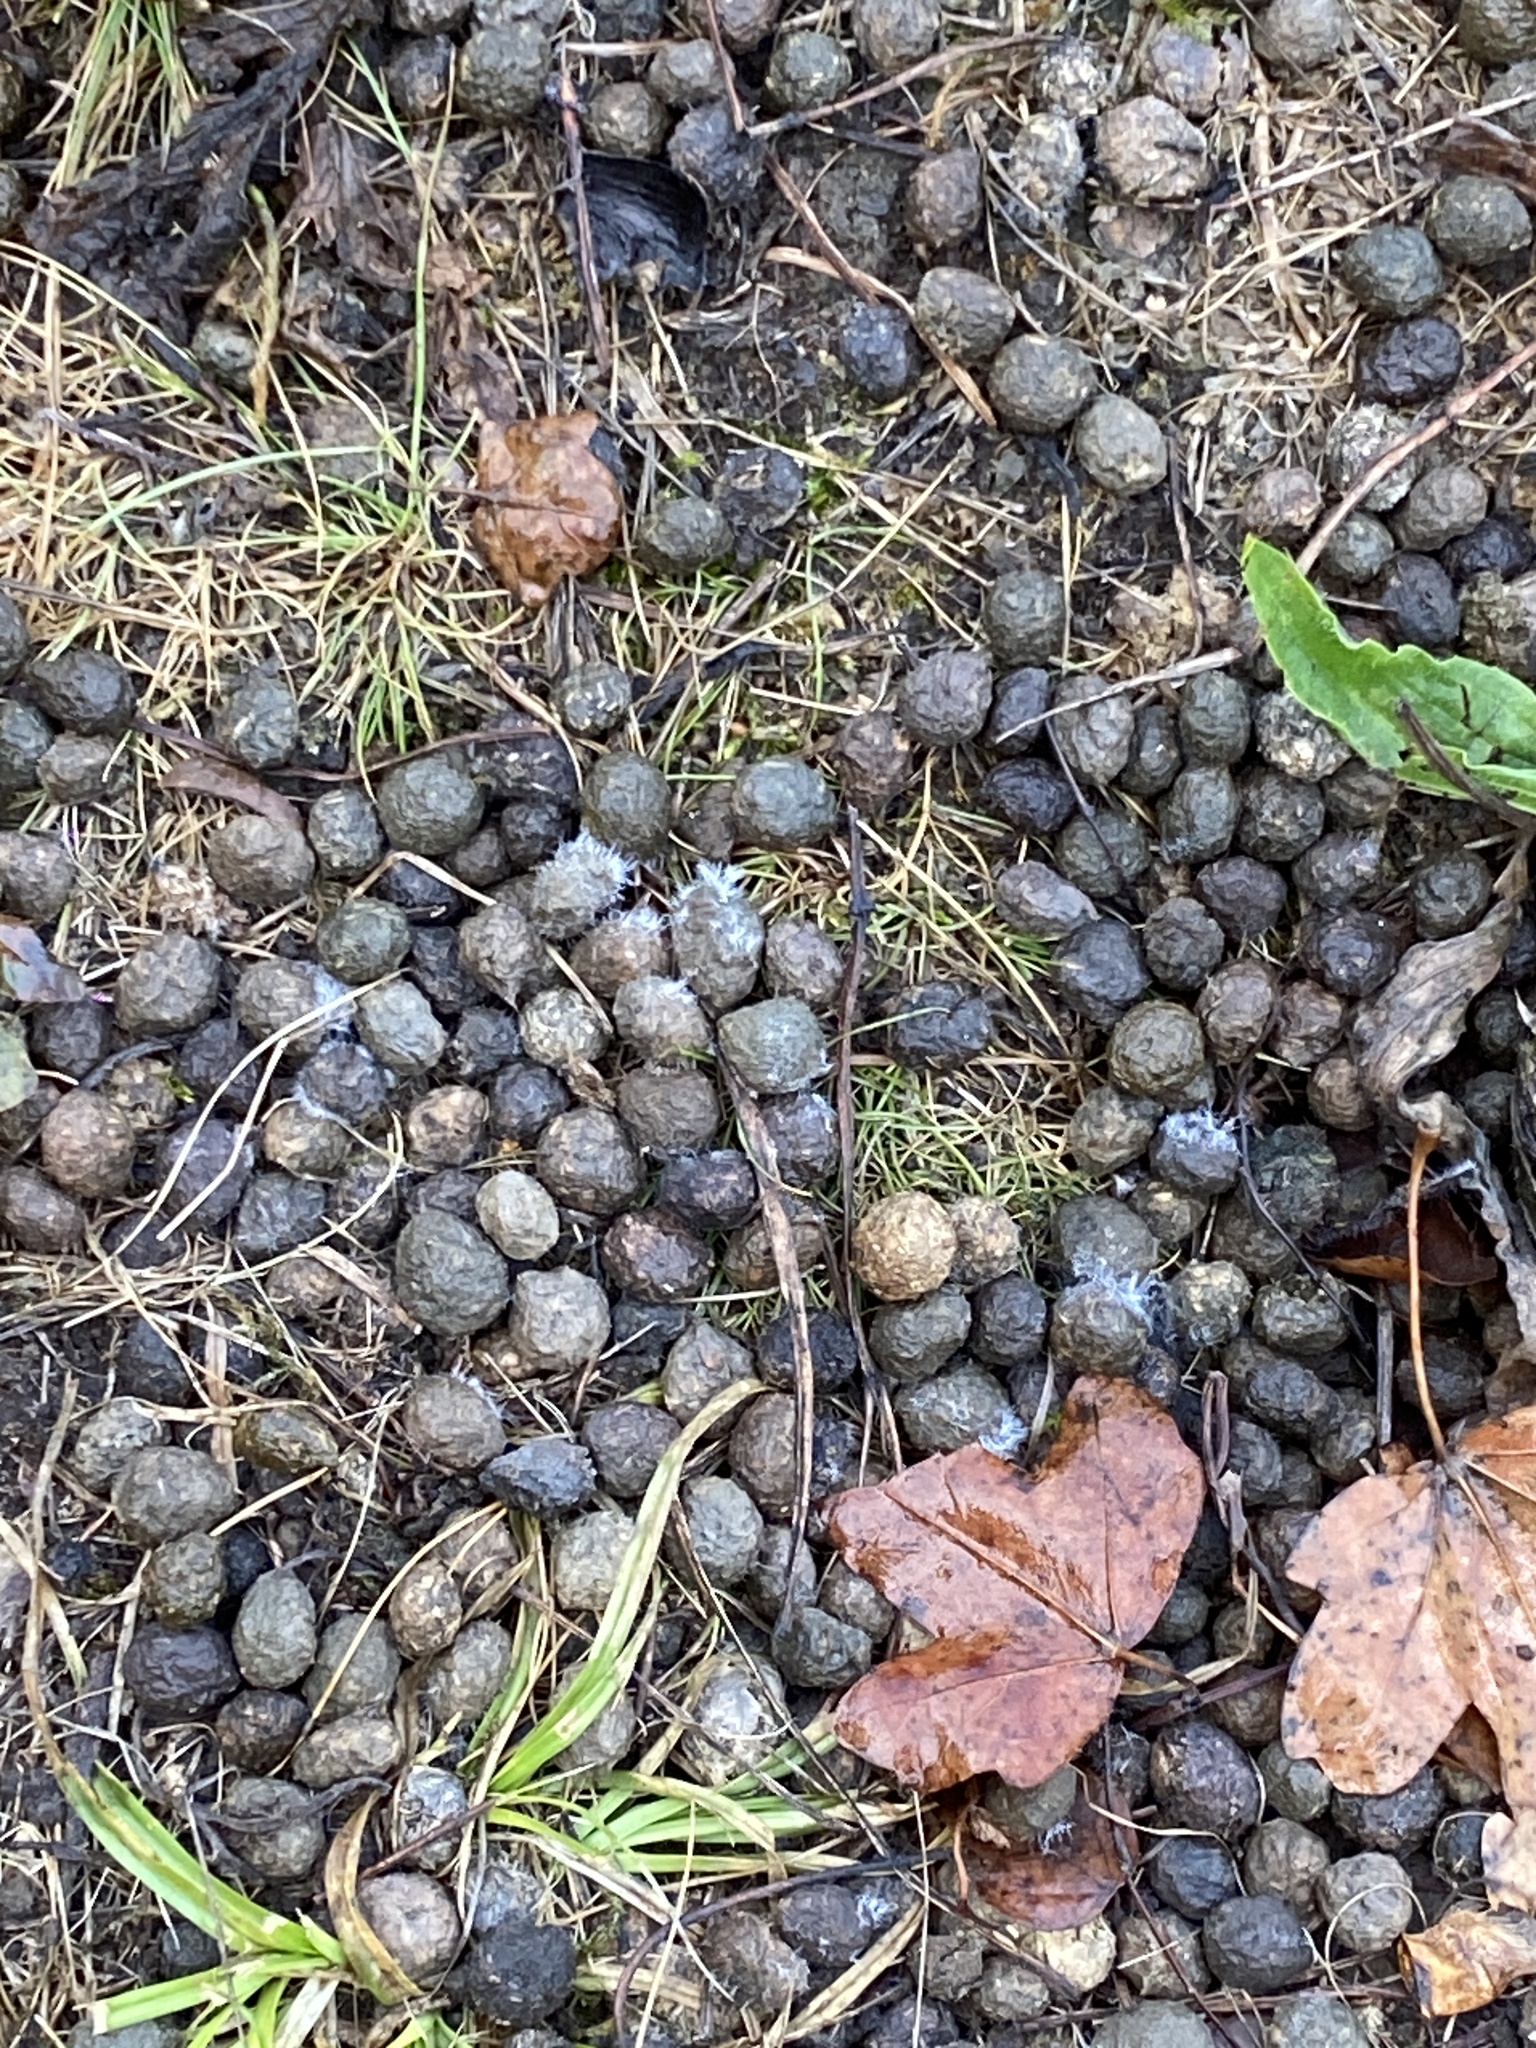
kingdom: Animalia
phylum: Chordata
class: Mammalia
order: Lagomorpha
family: Leporidae
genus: Oryctolagus
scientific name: Oryctolagus cuniculus
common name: European rabbit
